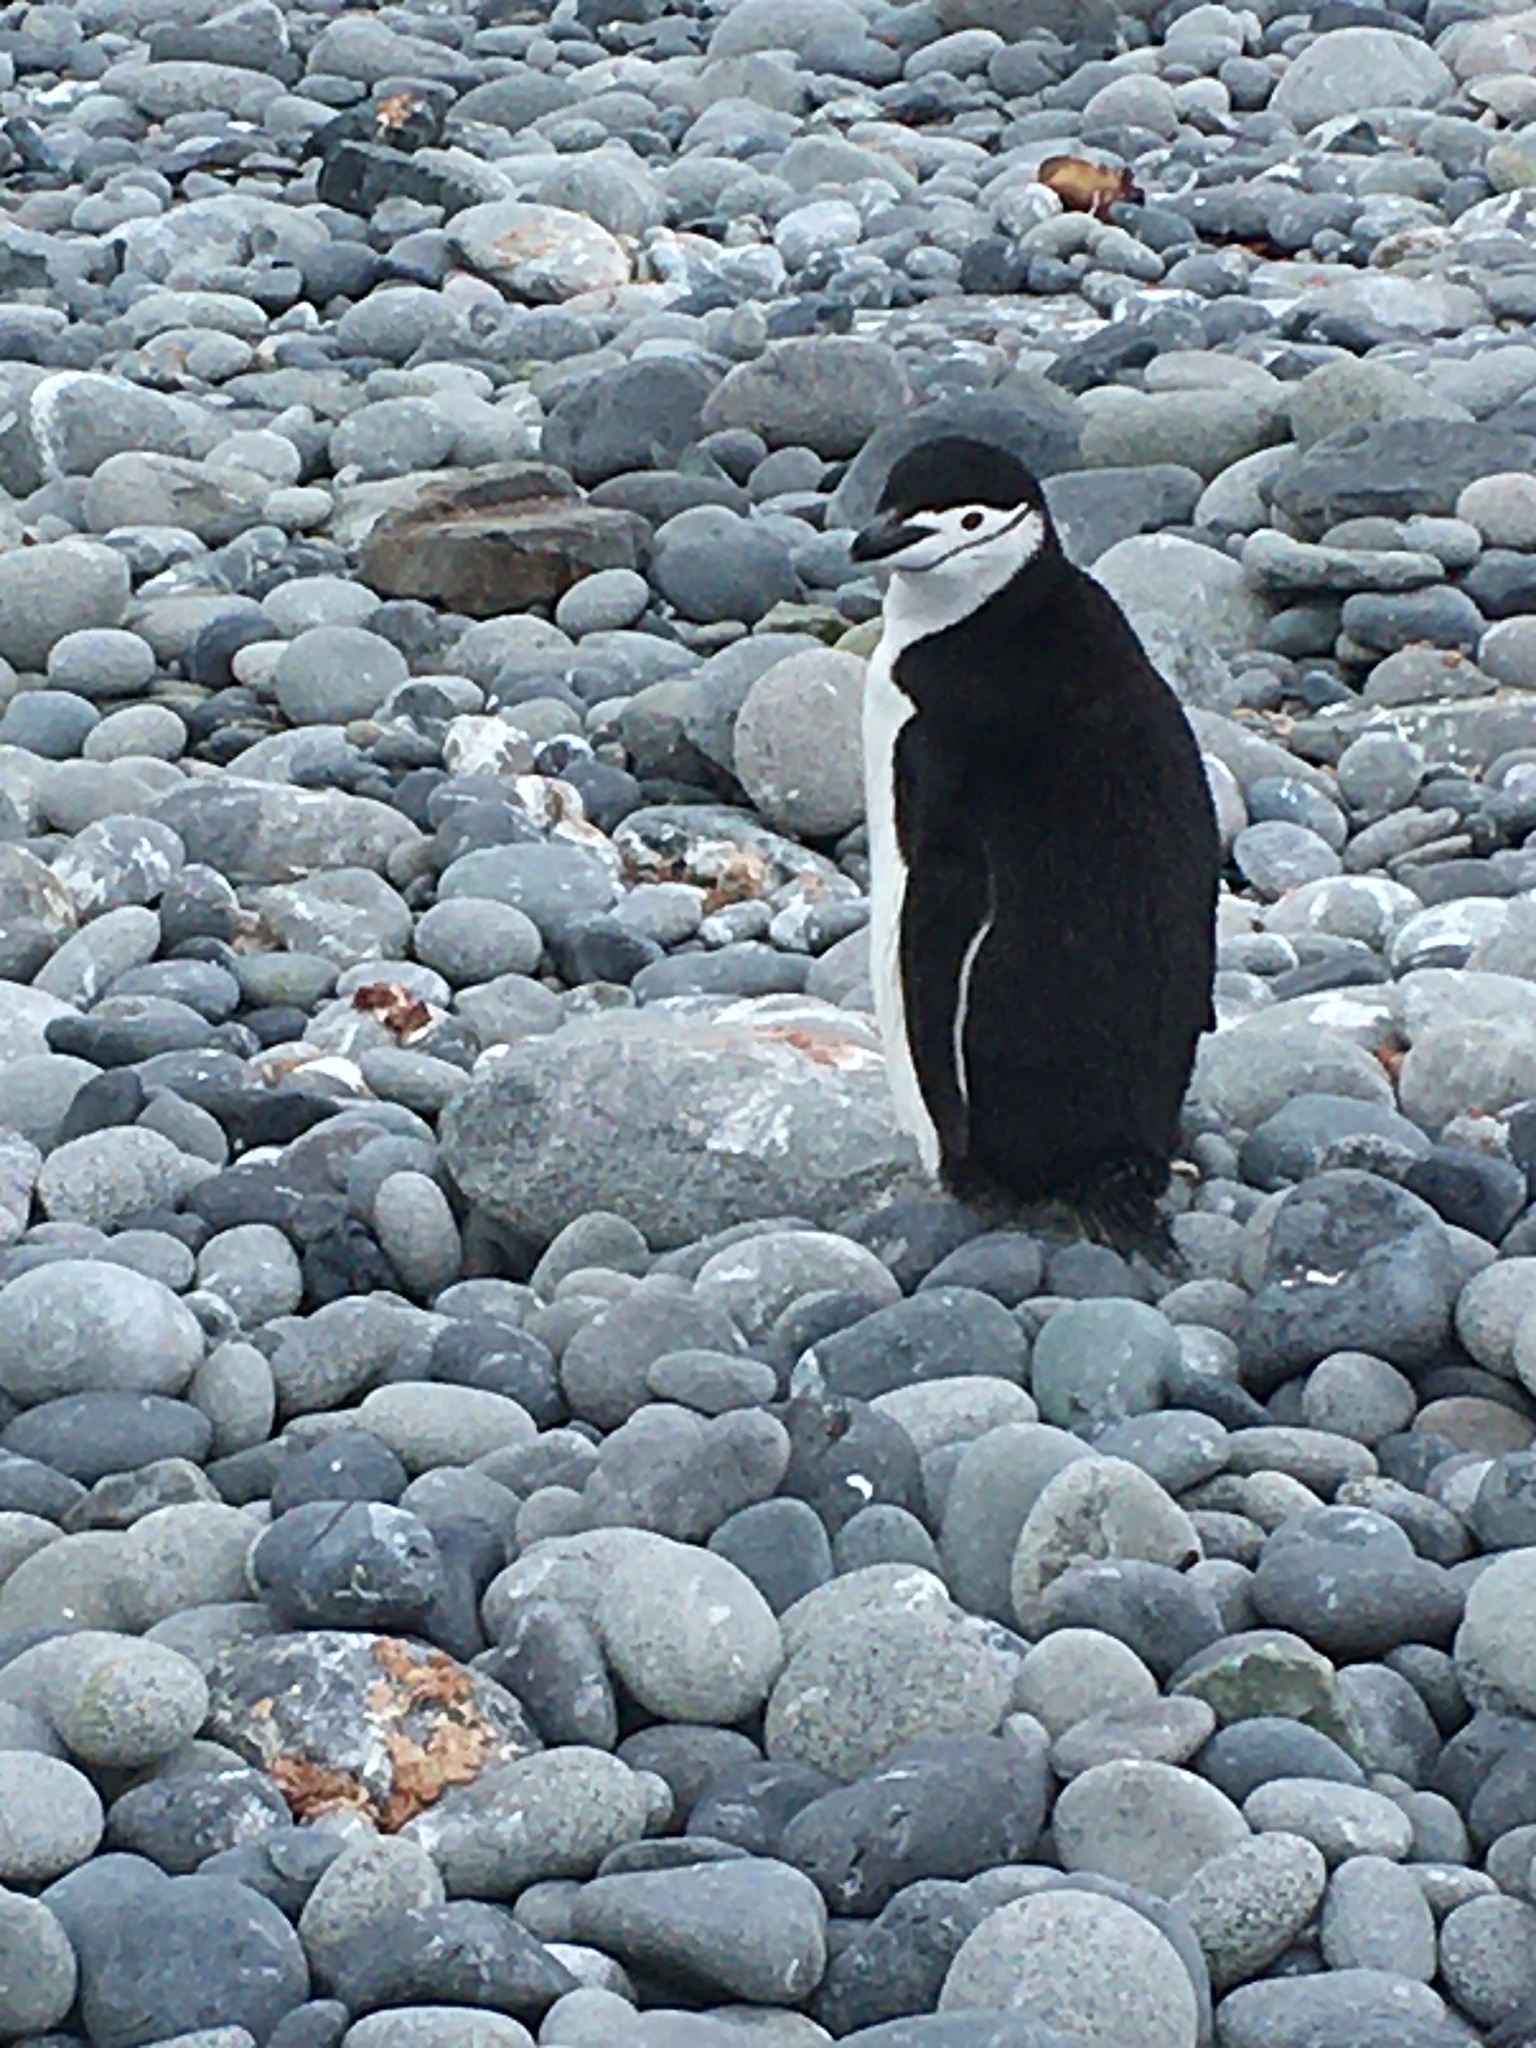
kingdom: Animalia
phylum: Chordata
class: Aves
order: Sphenisciformes
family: Spheniscidae
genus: Pygoscelis
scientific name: Pygoscelis antarcticus
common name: Chinstrap penguin
